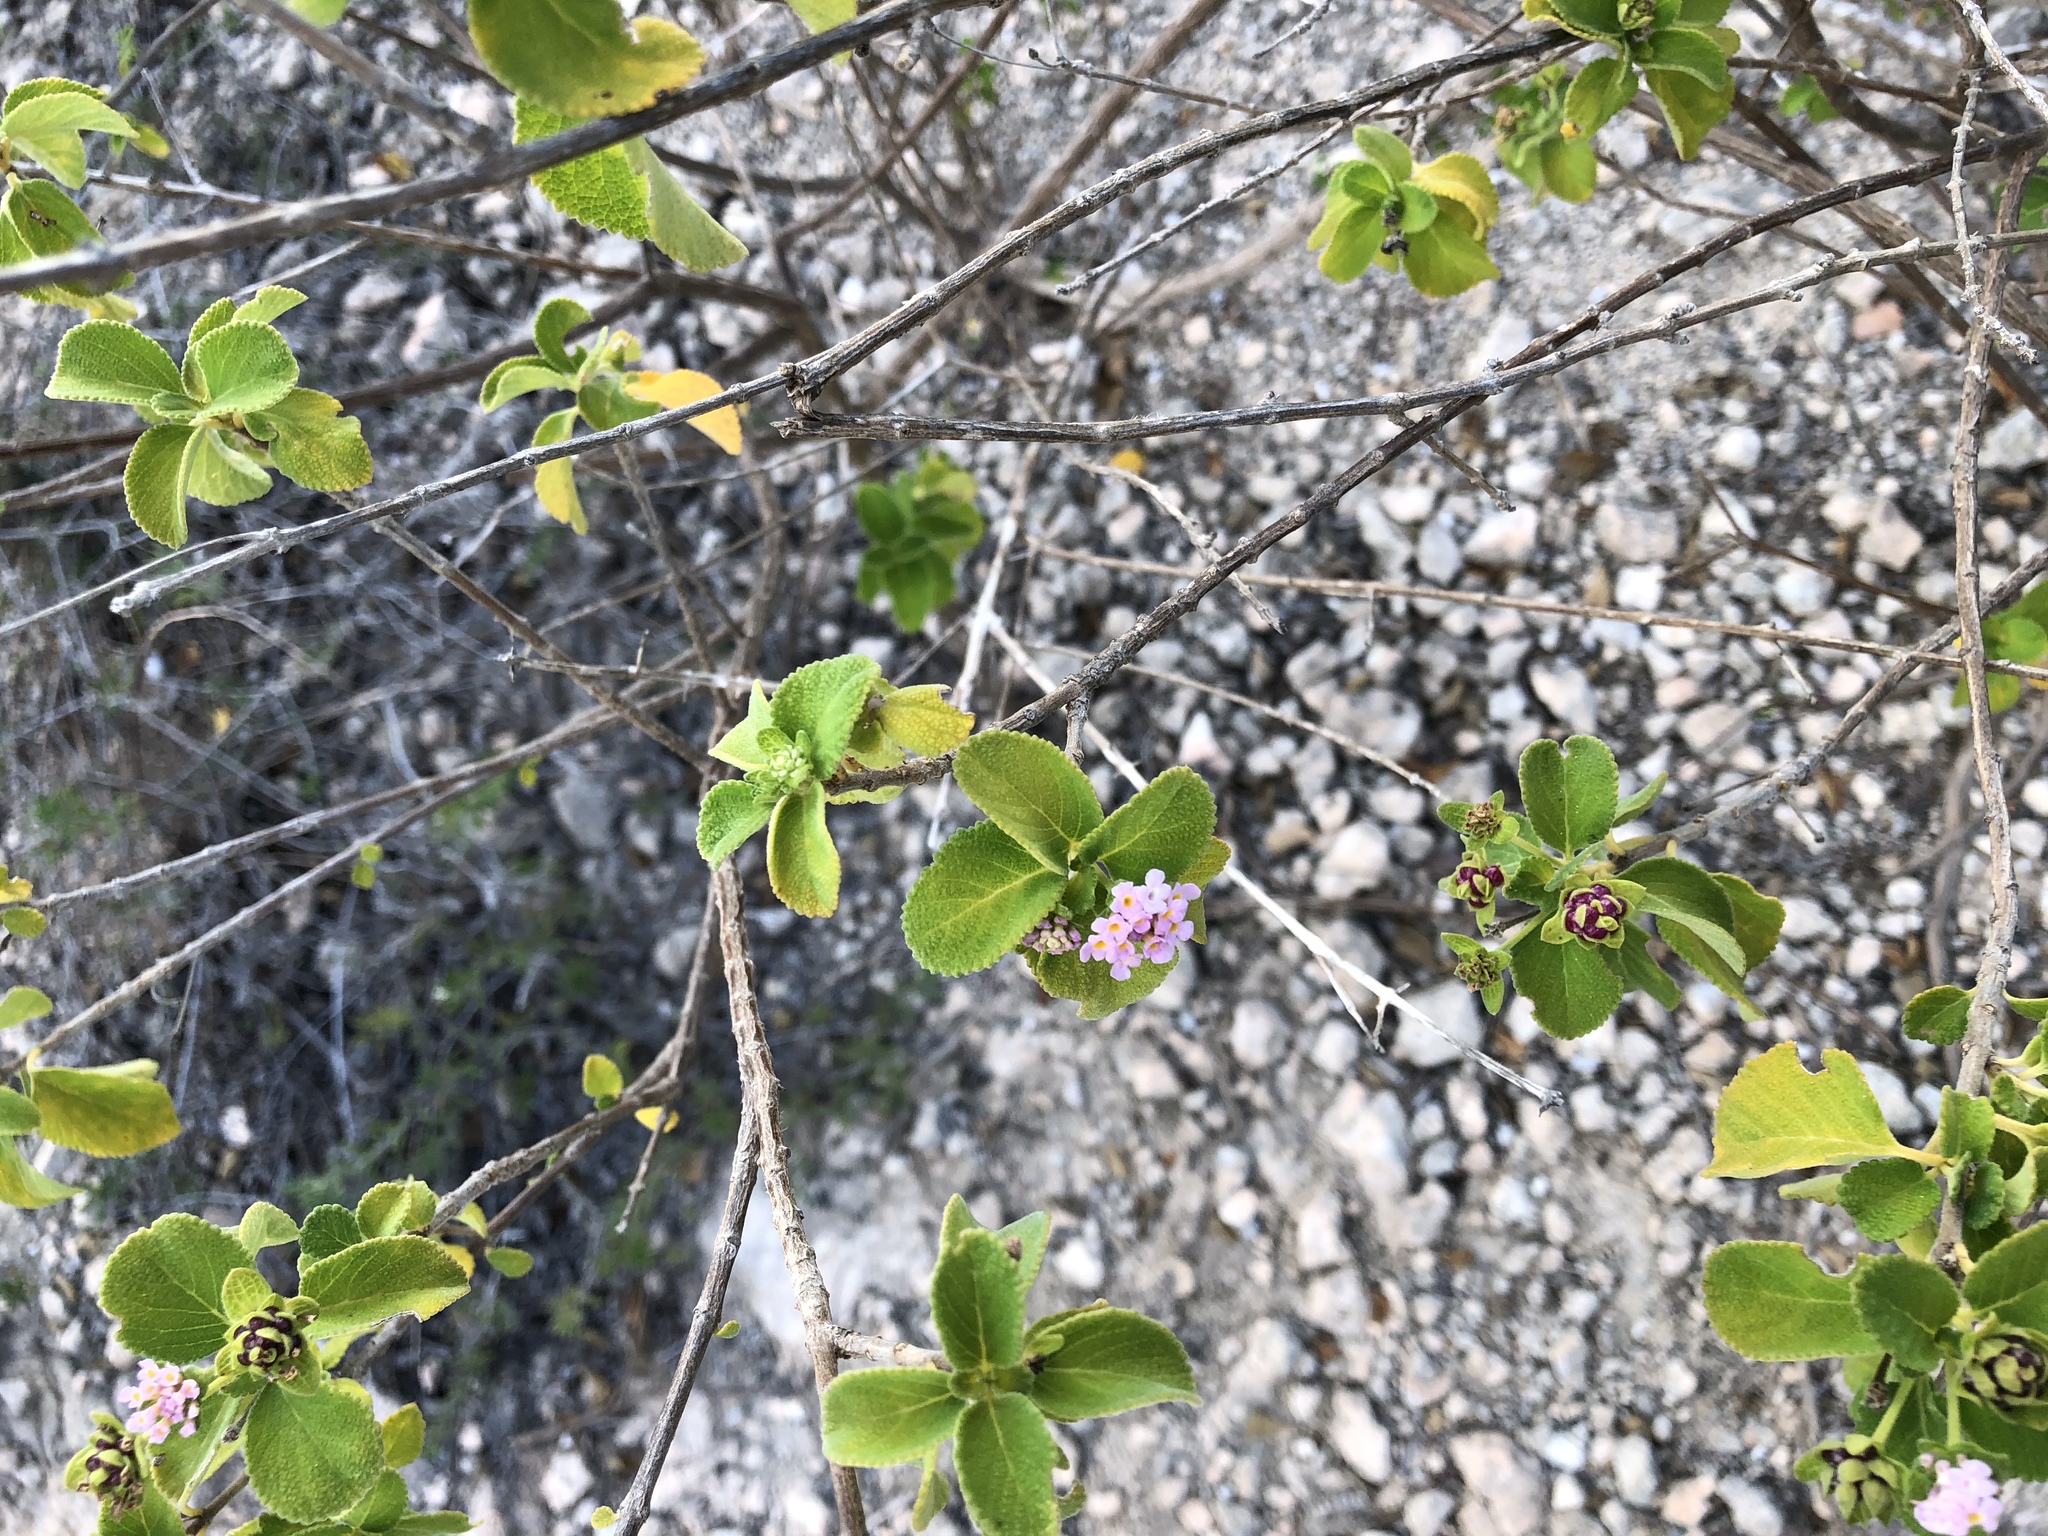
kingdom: Plantae
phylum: Tracheophyta
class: Magnoliopsida
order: Lamiales
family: Verbenaceae
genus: Lantana
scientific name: Lantana involucrata
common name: Black sage
